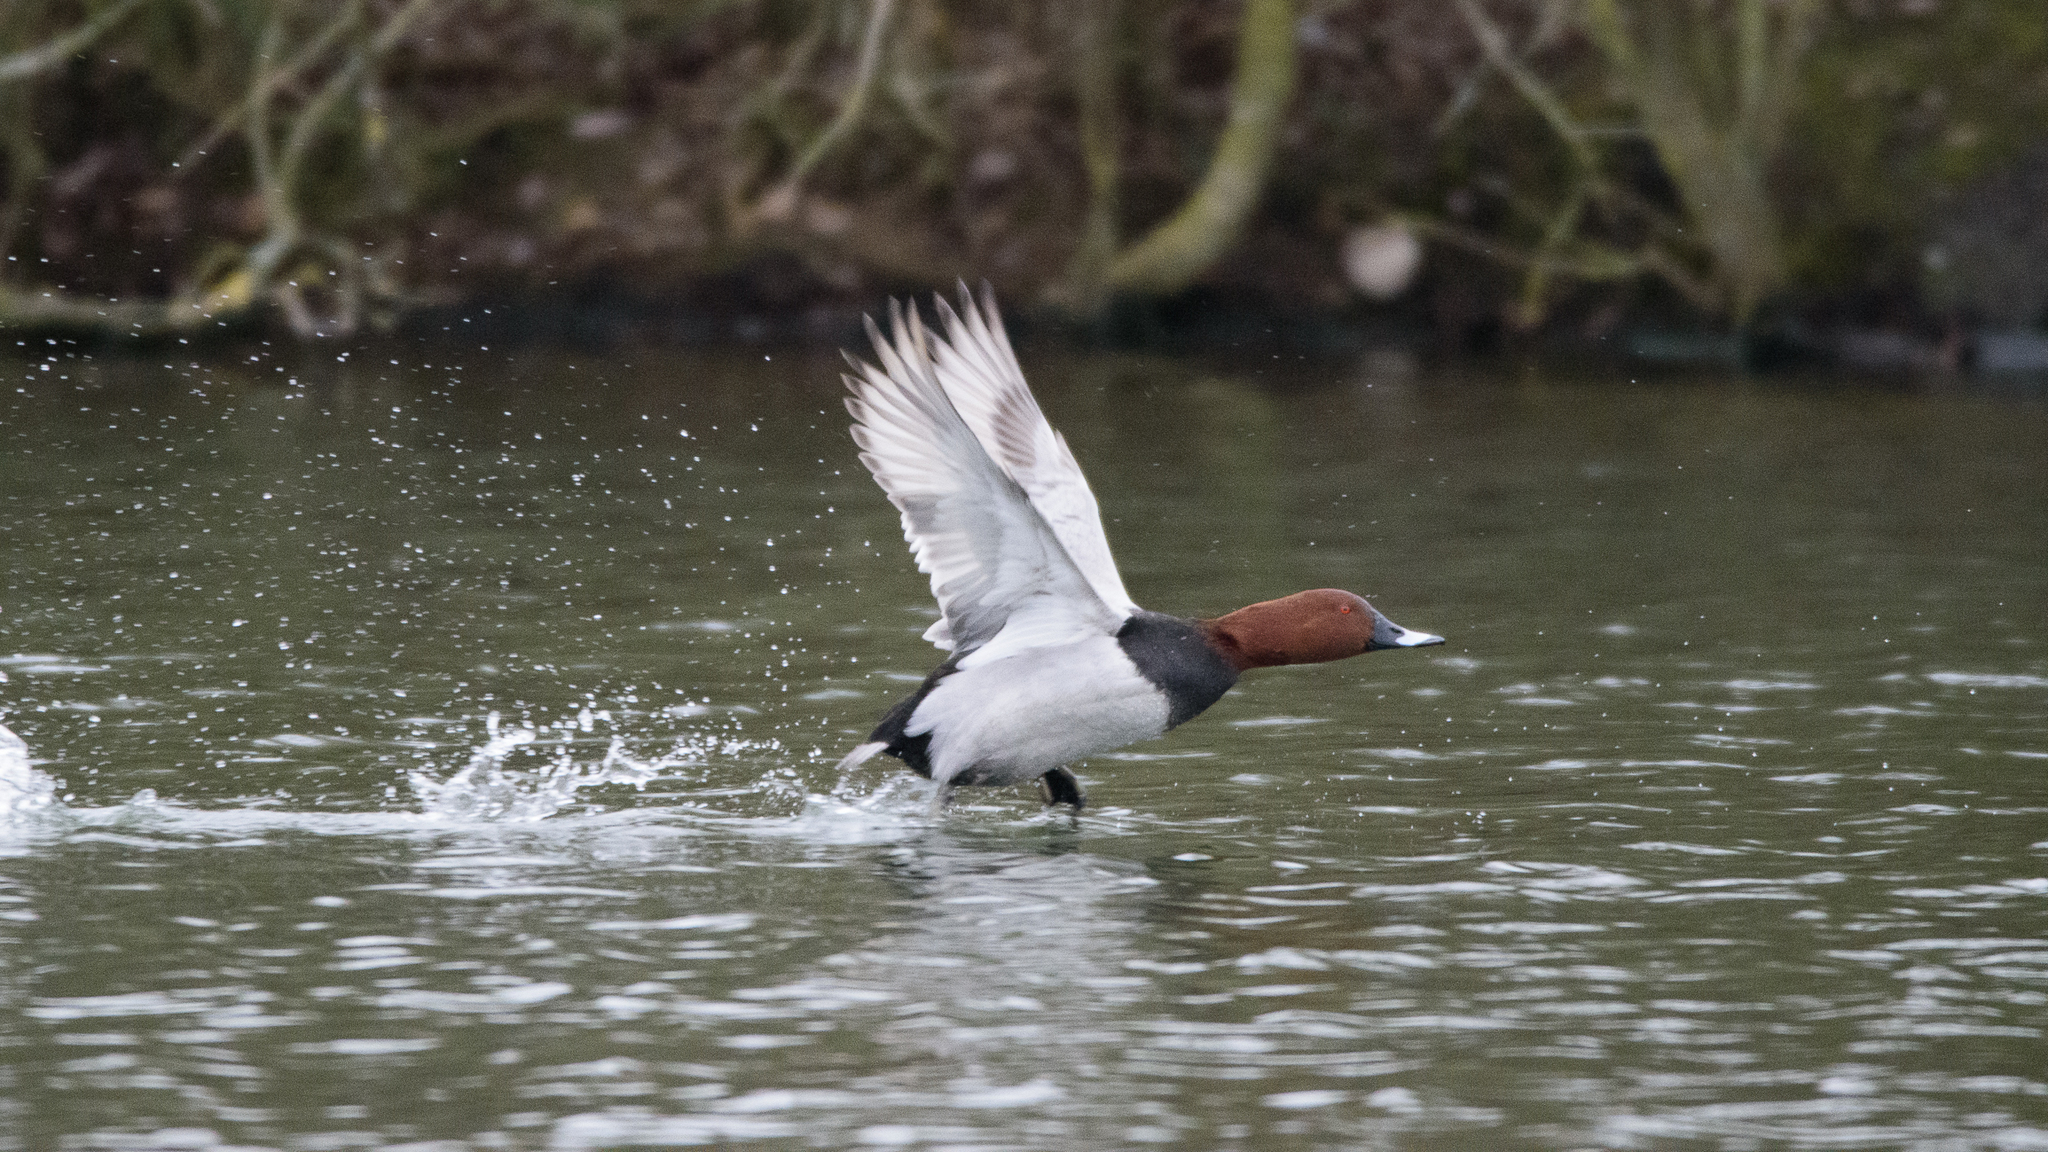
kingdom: Animalia
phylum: Chordata
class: Aves
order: Anseriformes
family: Anatidae
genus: Aythya
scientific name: Aythya ferina
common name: Common pochard
